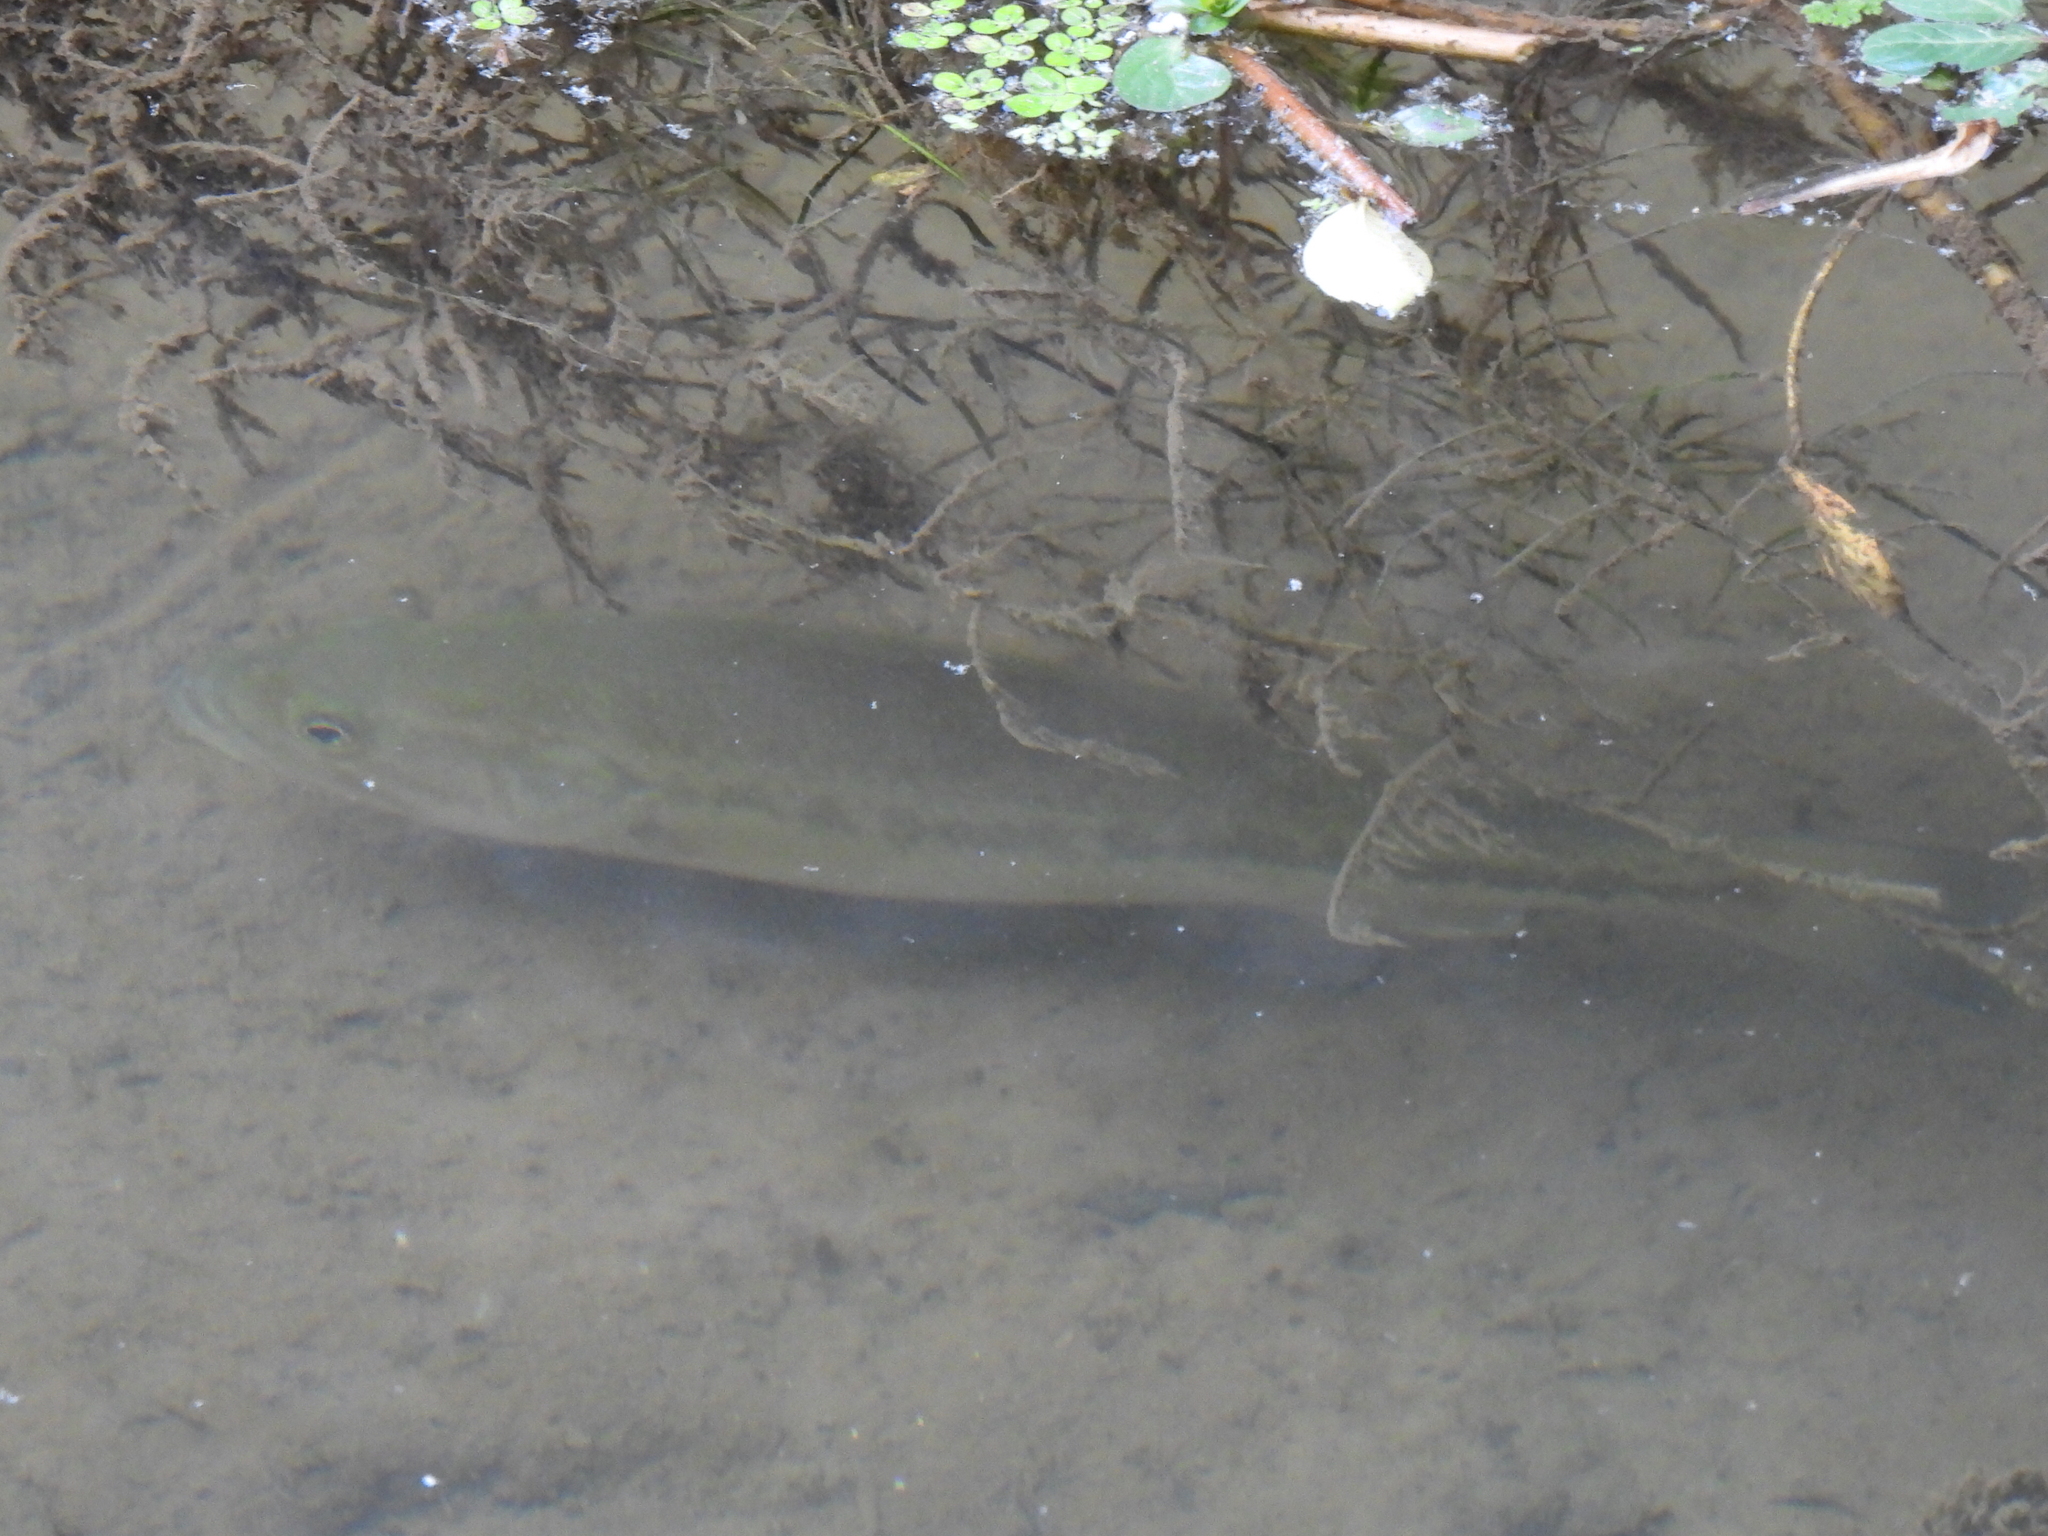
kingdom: Animalia
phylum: Chordata
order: Perciformes
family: Centrarchidae
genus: Micropterus
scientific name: Micropterus
